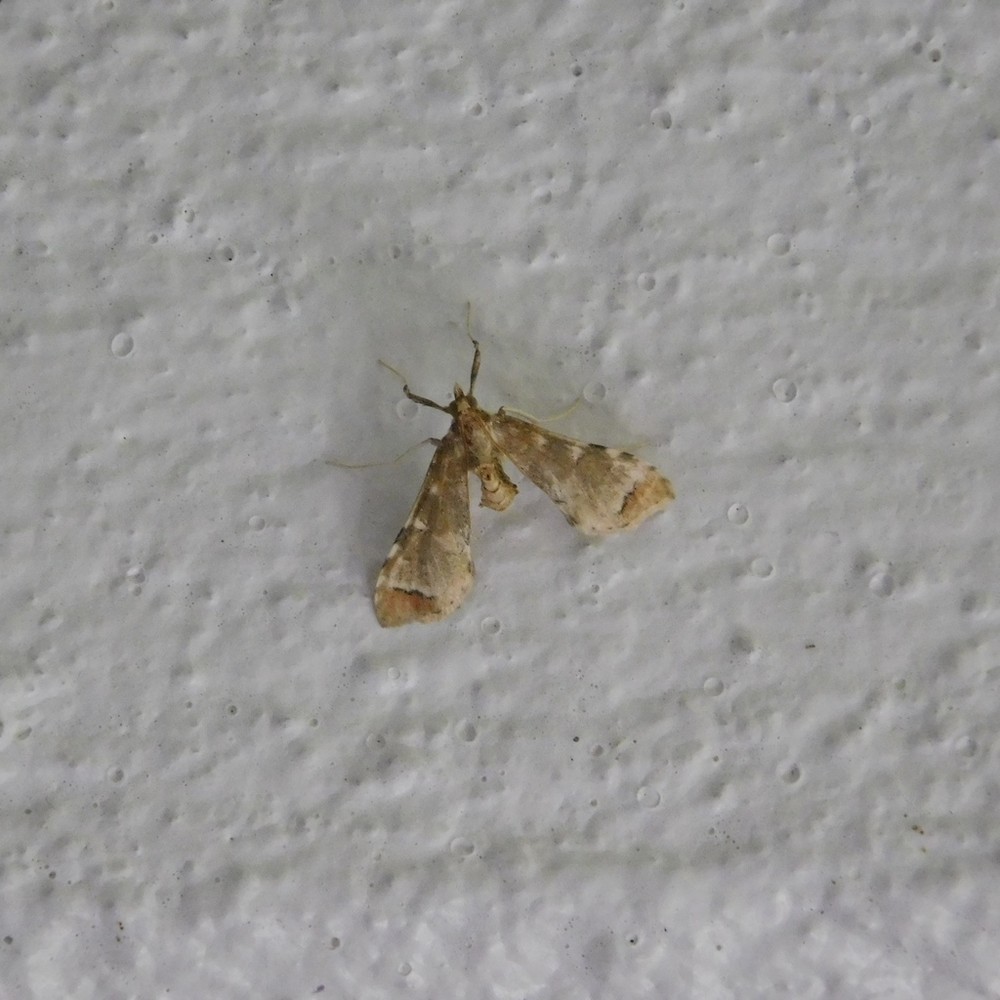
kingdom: Animalia
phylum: Arthropoda
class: Insecta
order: Lepidoptera
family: Crambidae
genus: Sceliodes
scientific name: Sceliodes cordalis
